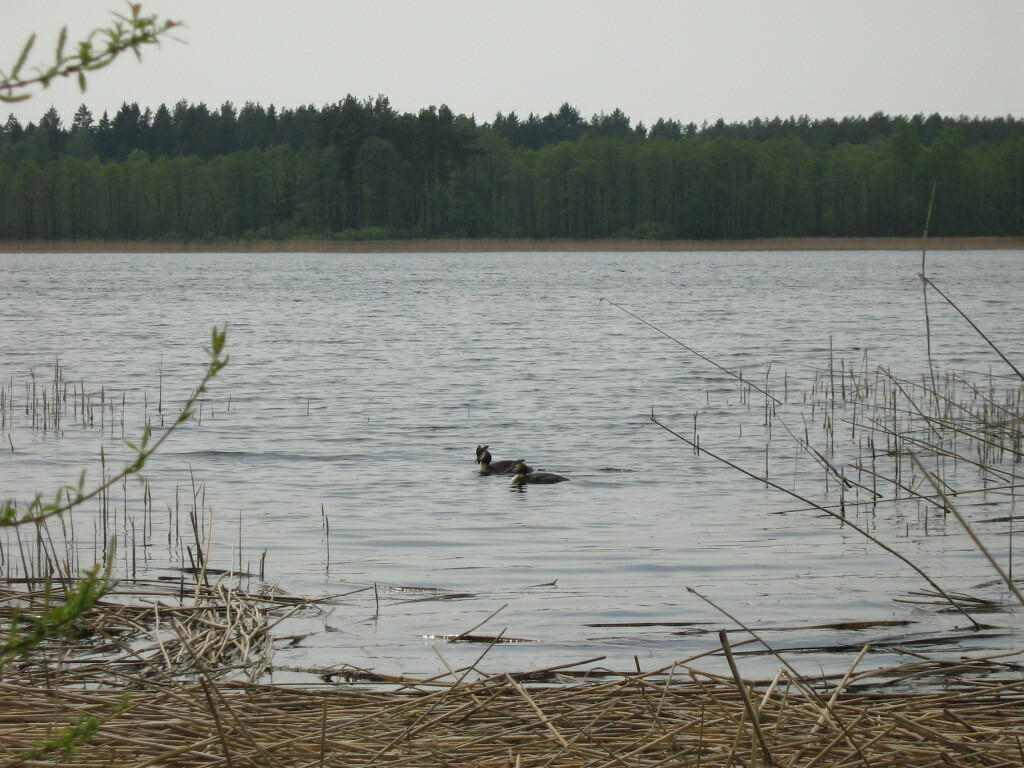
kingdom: Animalia
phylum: Chordata
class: Aves
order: Podicipediformes
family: Podicipedidae
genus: Podiceps
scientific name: Podiceps cristatus
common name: Great crested grebe
